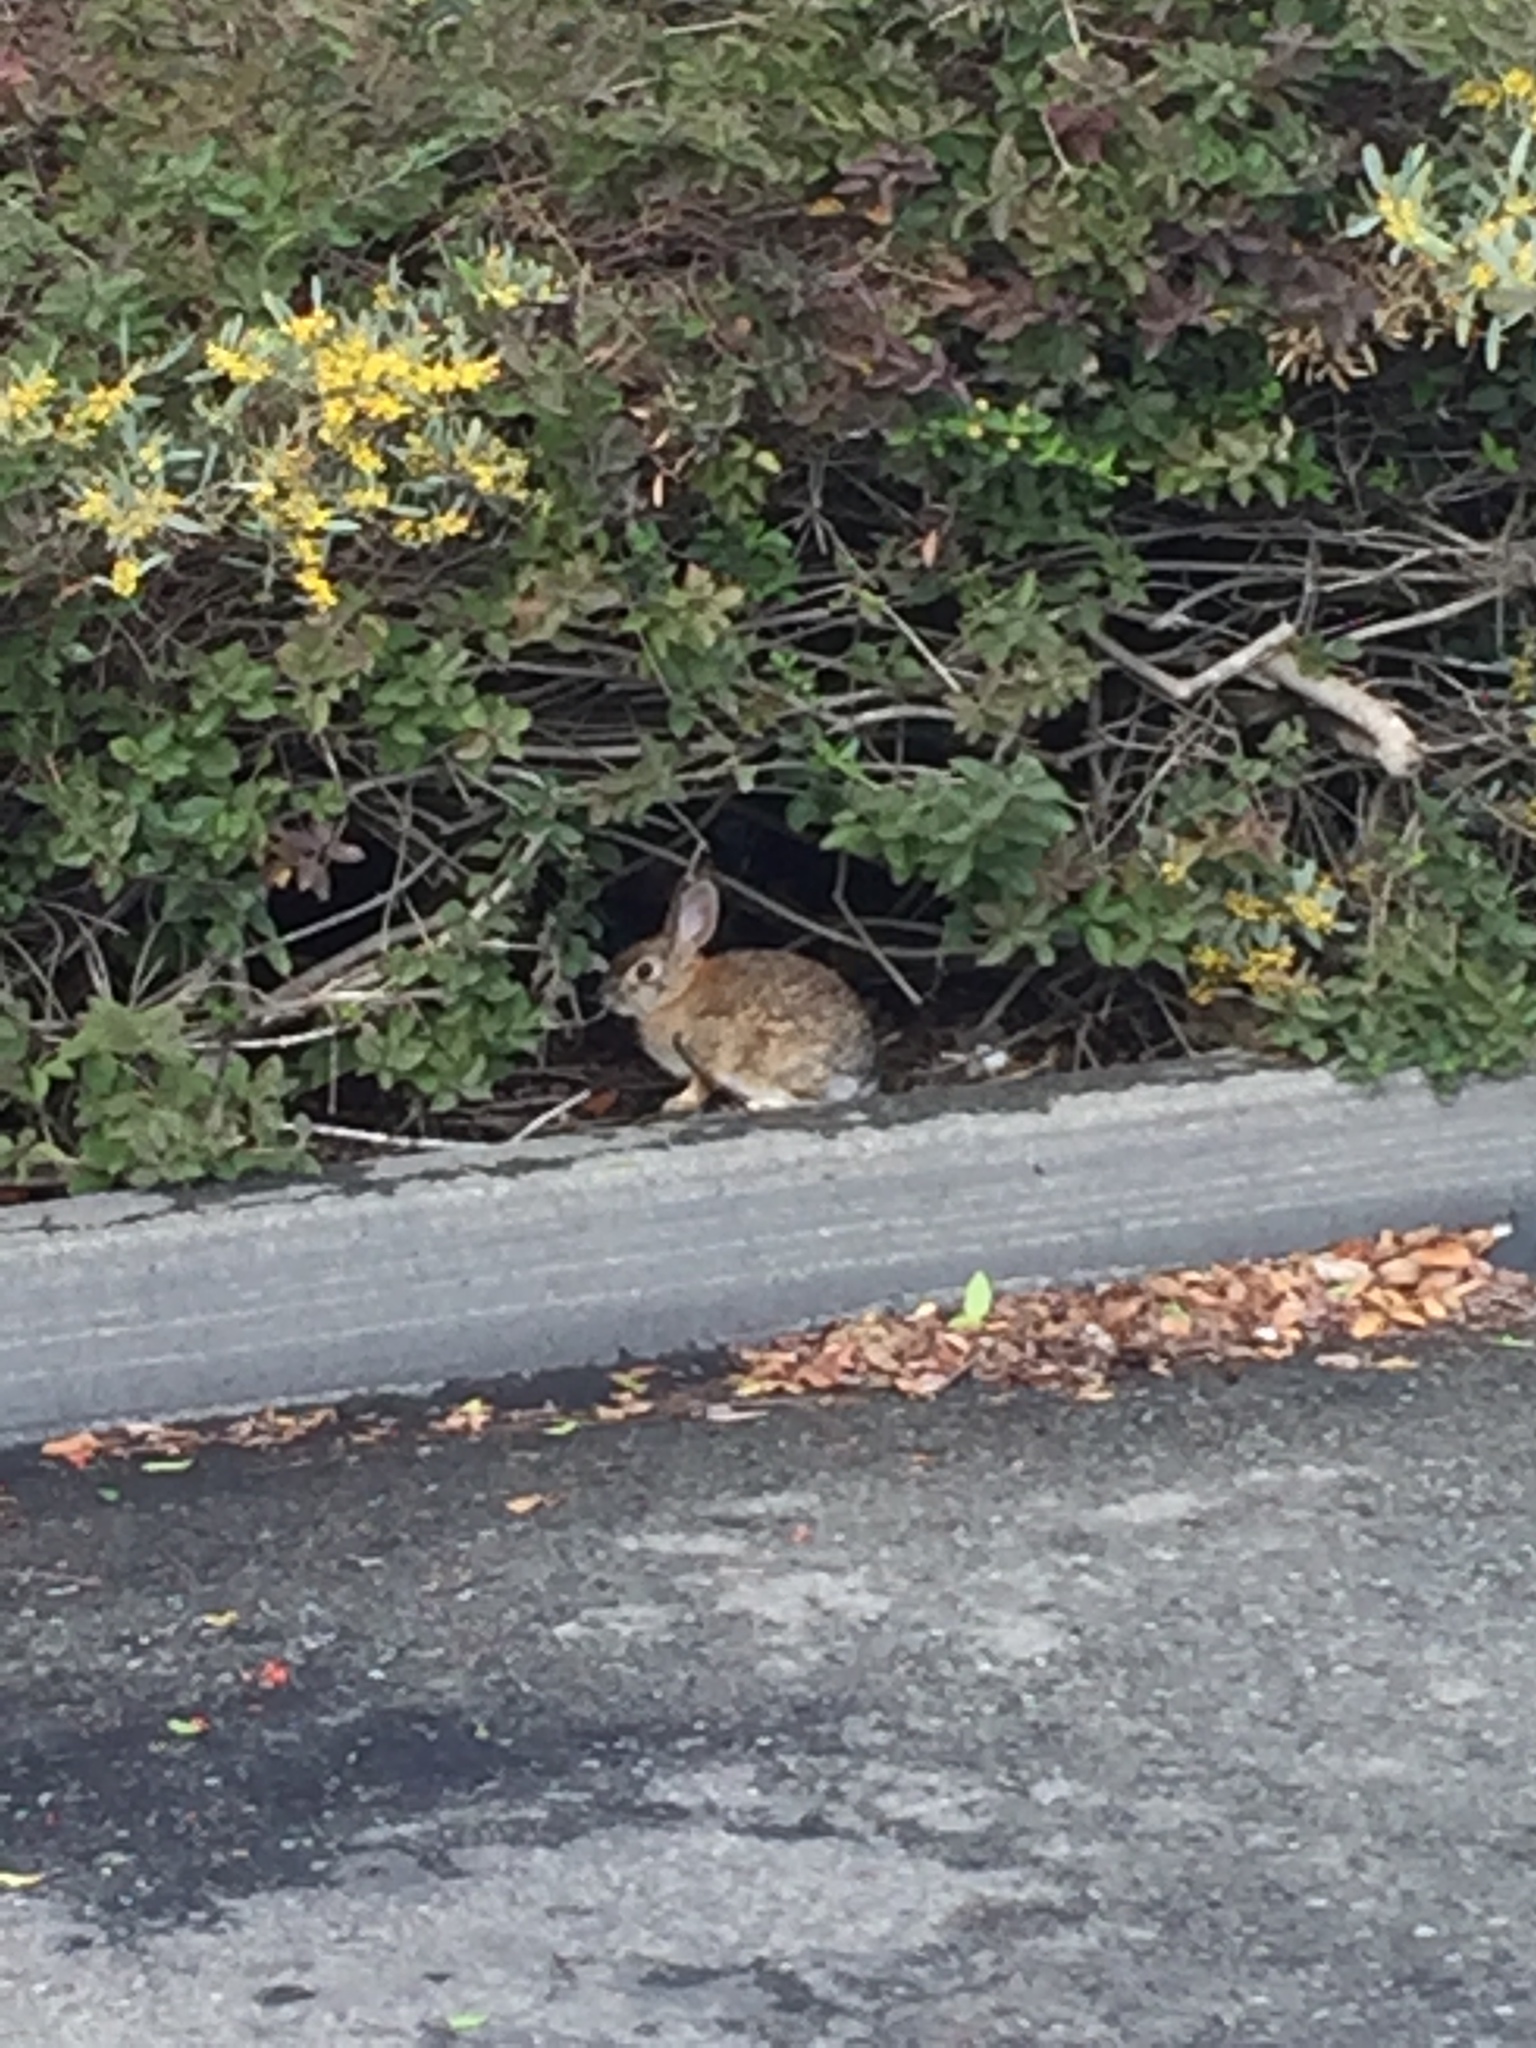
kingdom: Animalia
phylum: Chordata
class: Mammalia
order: Lagomorpha
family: Leporidae
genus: Sylvilagus
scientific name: Sylvilagus audubonii
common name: Desert cottontail
